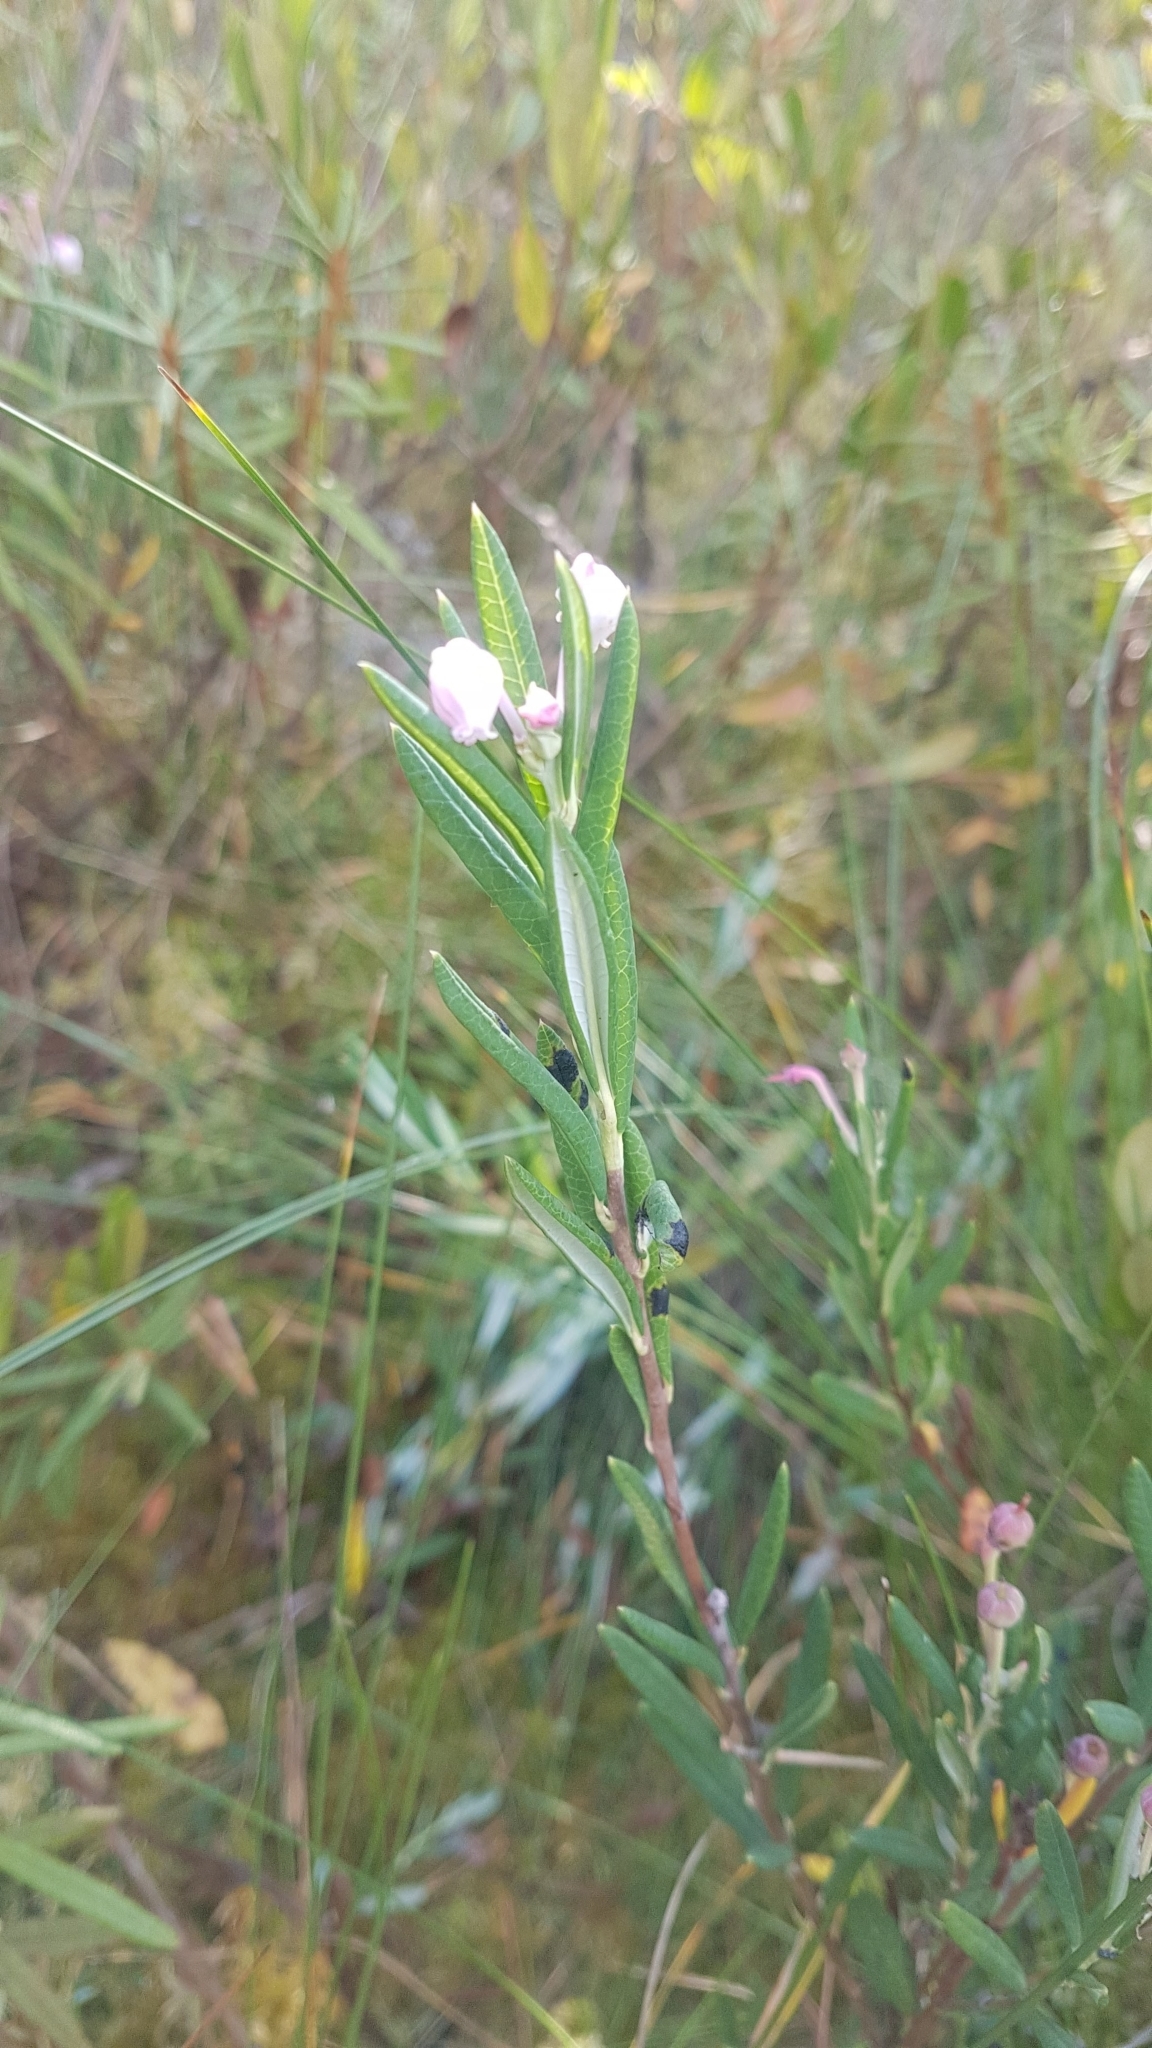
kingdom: Plantae
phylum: Tracheophyta
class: Magnoliopsida
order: Ericales
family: Ericaceae
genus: Andromeda
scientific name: Andromeda polifolia
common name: Bog-rosemary
